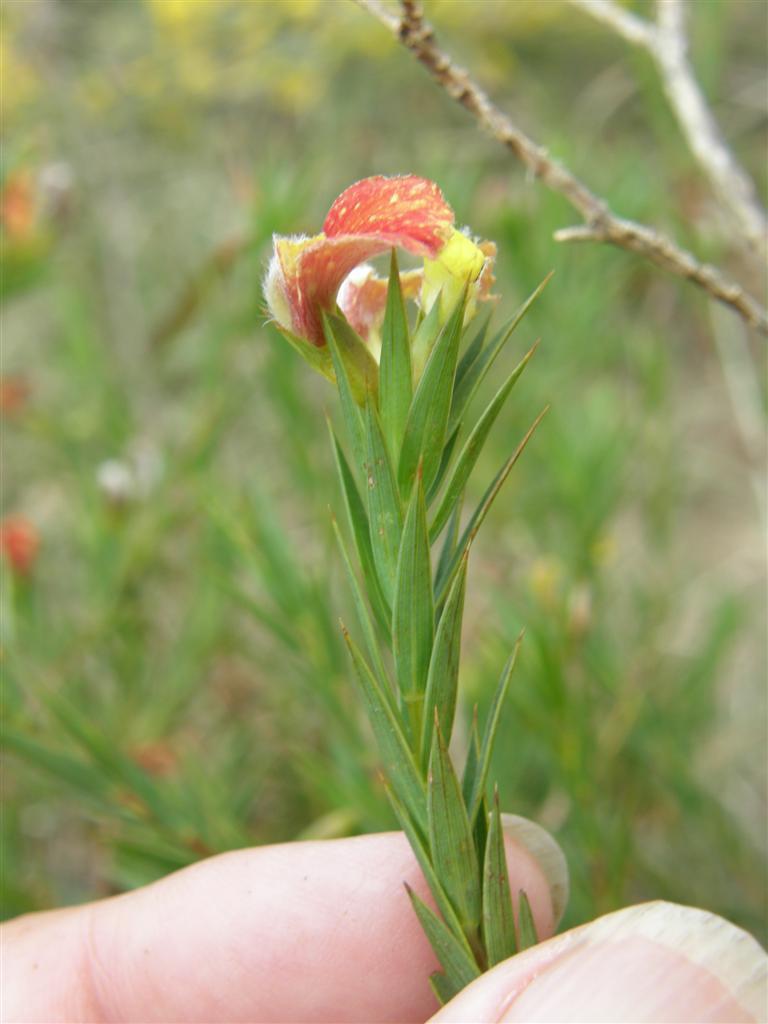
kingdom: Plantae
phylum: Tracheophyta
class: Magnoliopsida
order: Fabales
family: Fabaceae
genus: Aspalathus
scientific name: Aspalathus angustifolia
